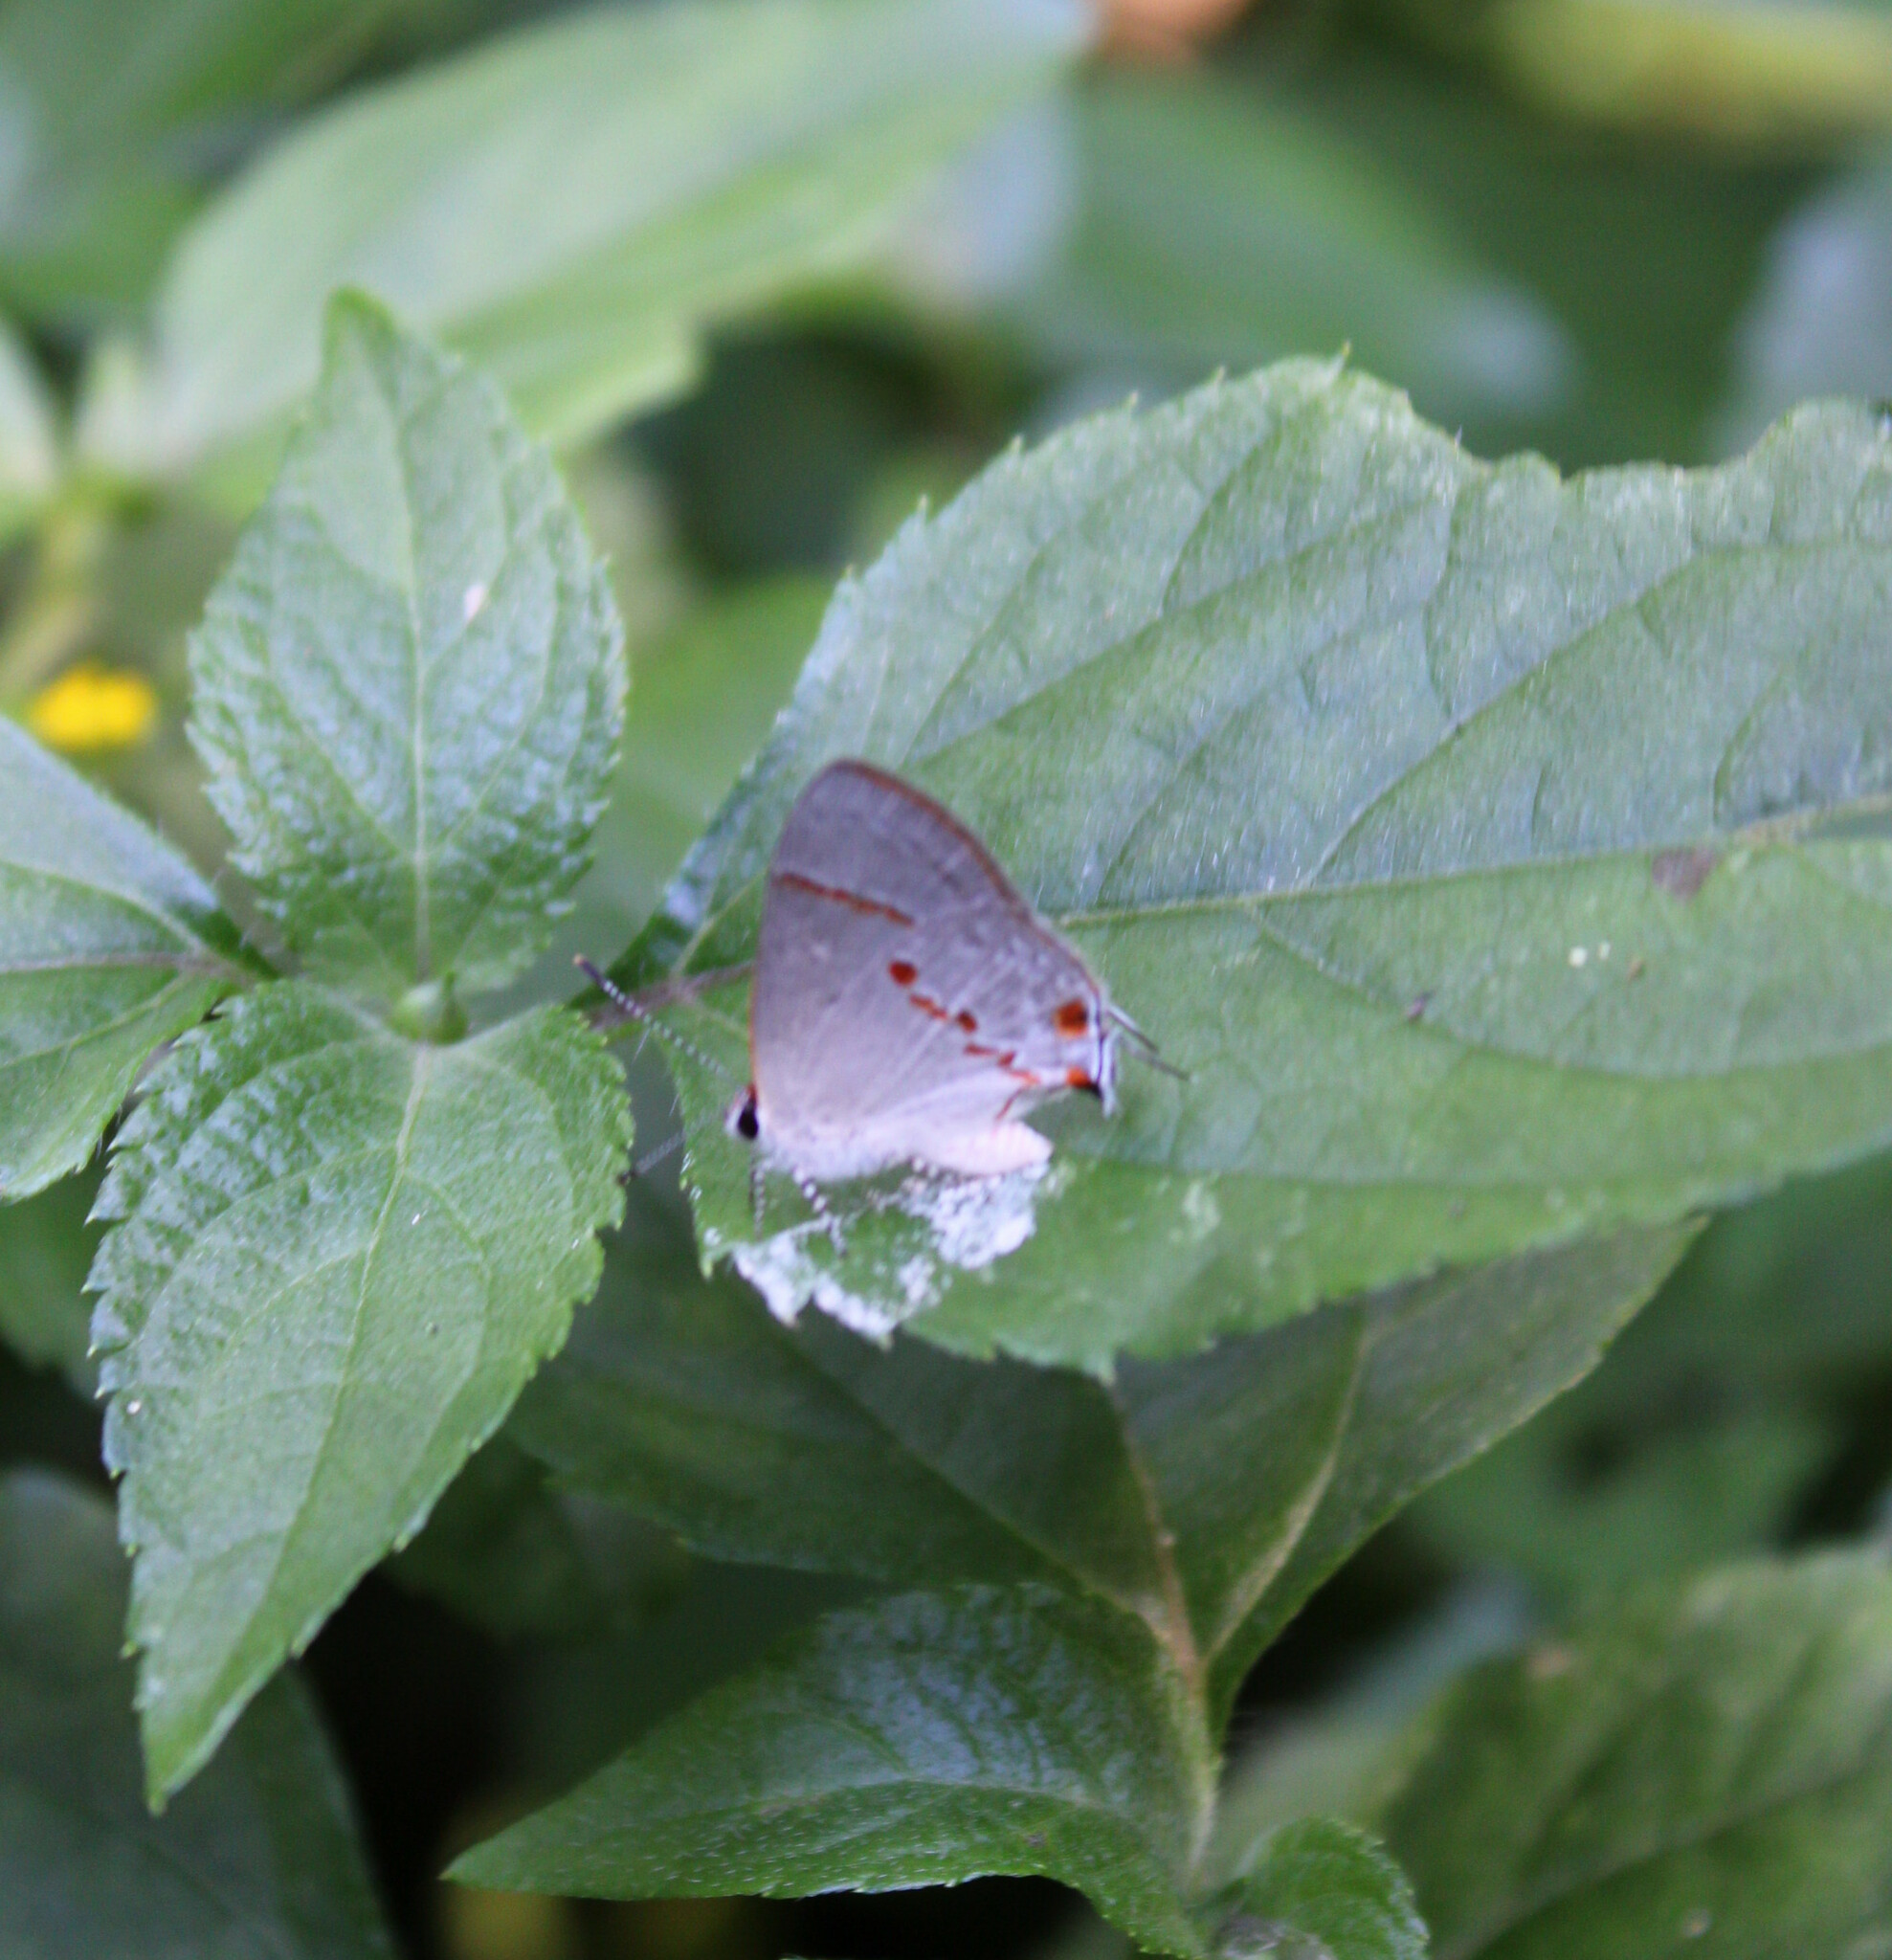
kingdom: Animalia
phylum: Arthropoda
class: Insecta
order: Lepidoptera
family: Lycaenidae
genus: Thecla
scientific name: Thecla azia
